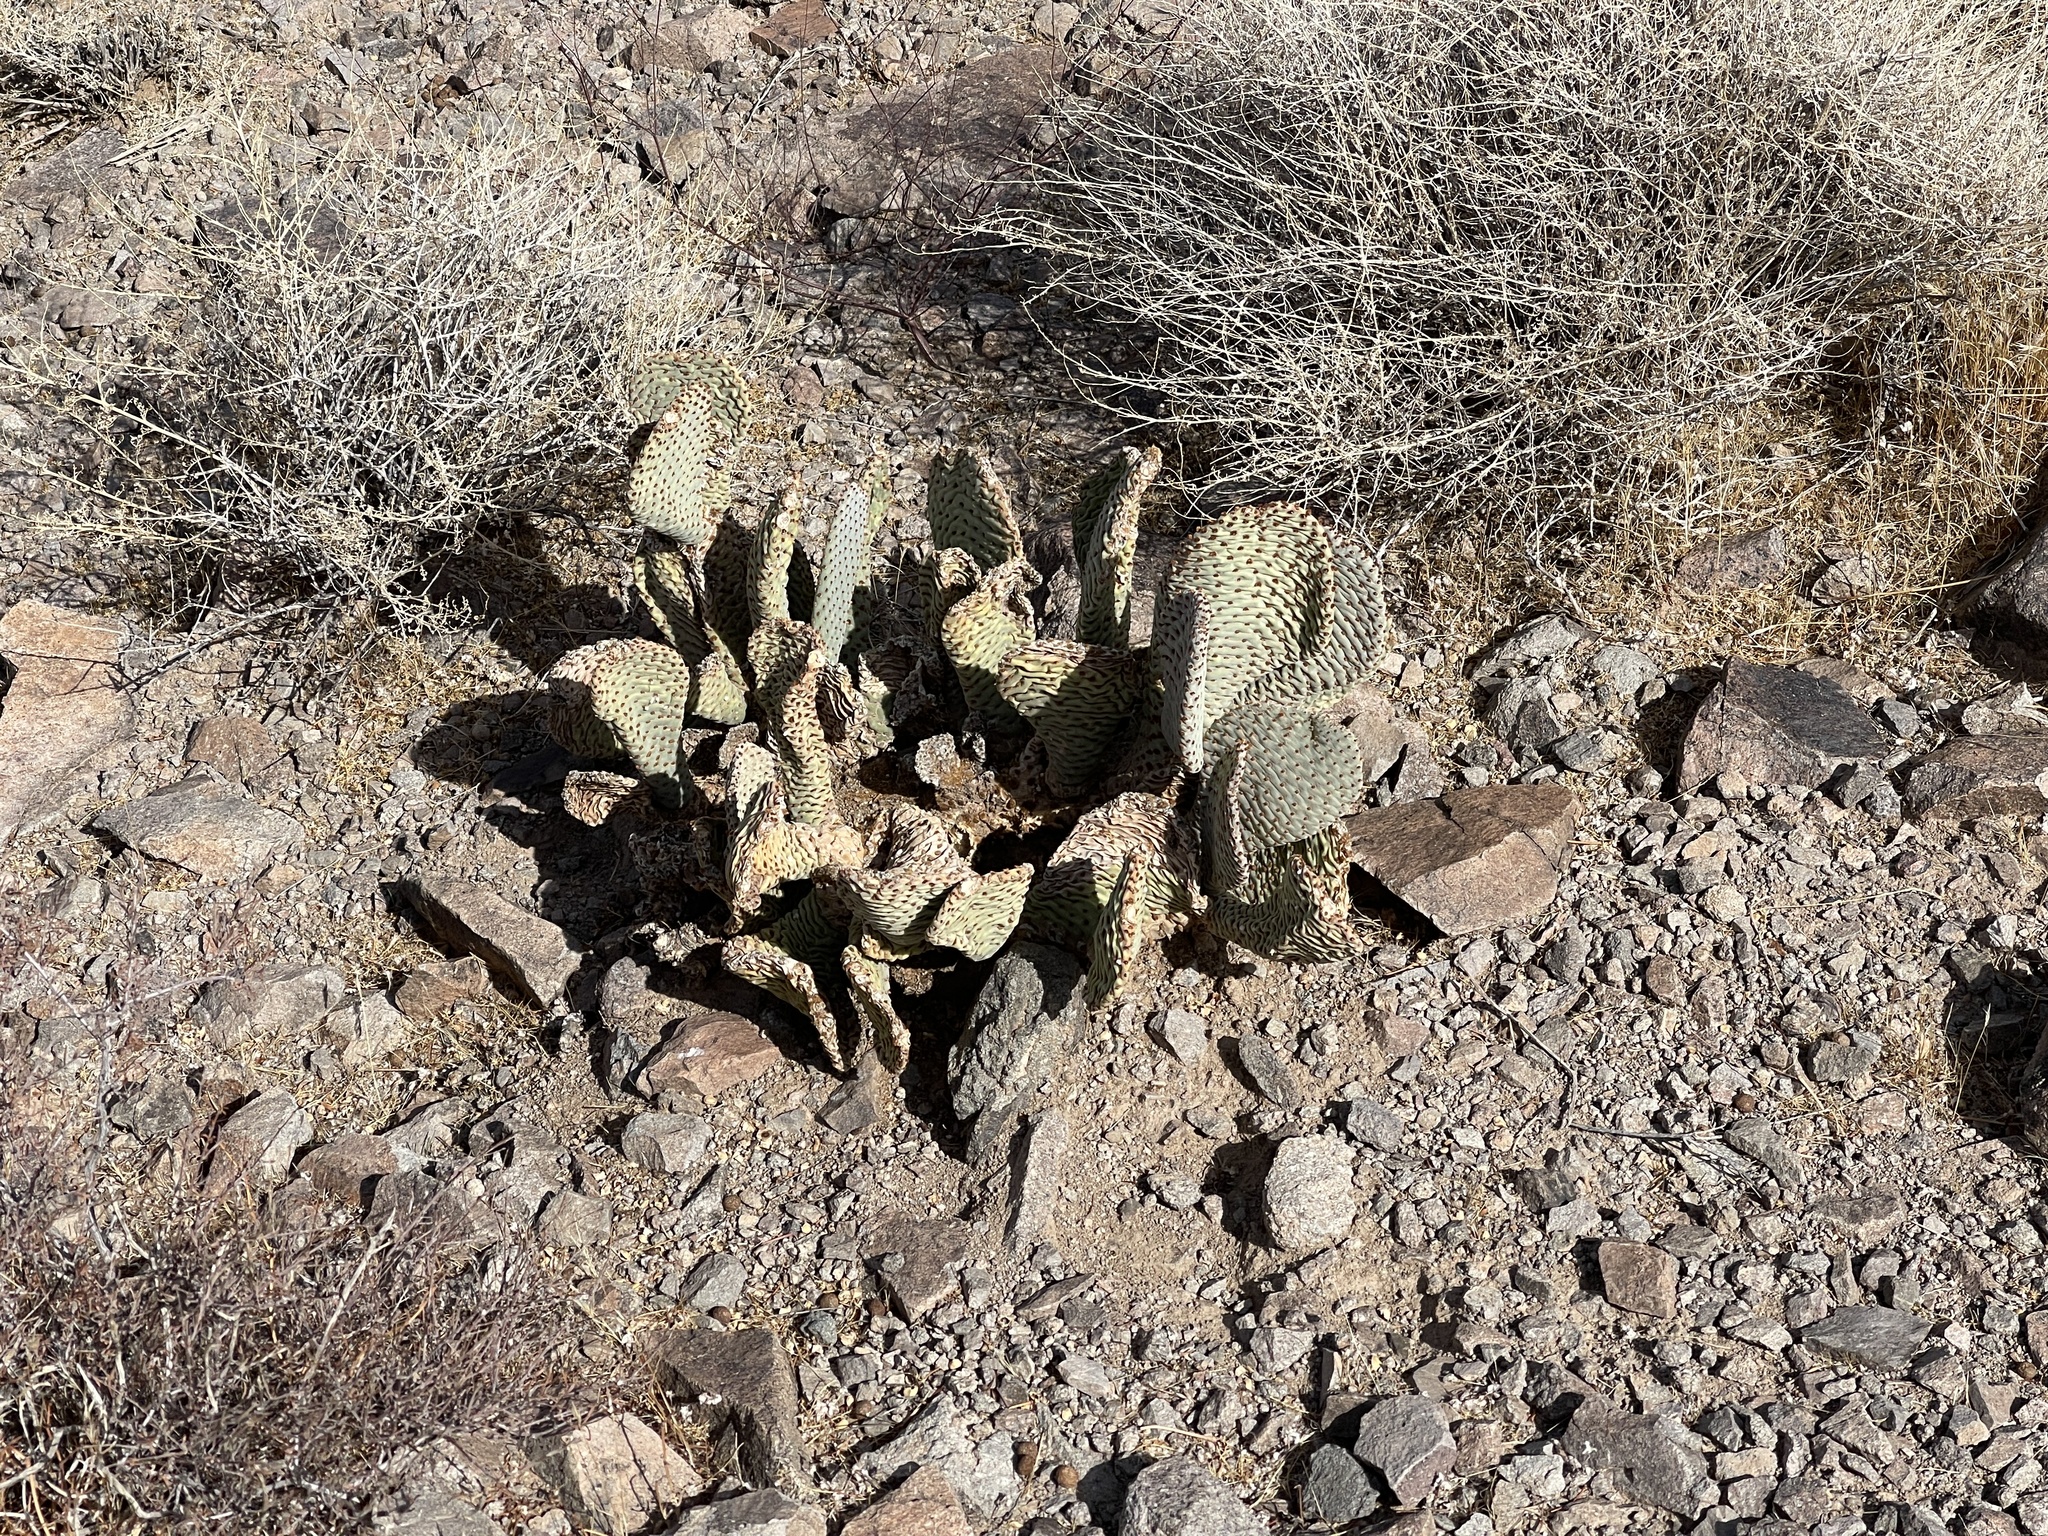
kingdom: Plantae
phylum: Tracheophyta
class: Magnoliopsida
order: Caryophyllales
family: Cactaceae
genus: Opuntia
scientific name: Opuntia basilaris
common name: Beavertail prickly-pear
